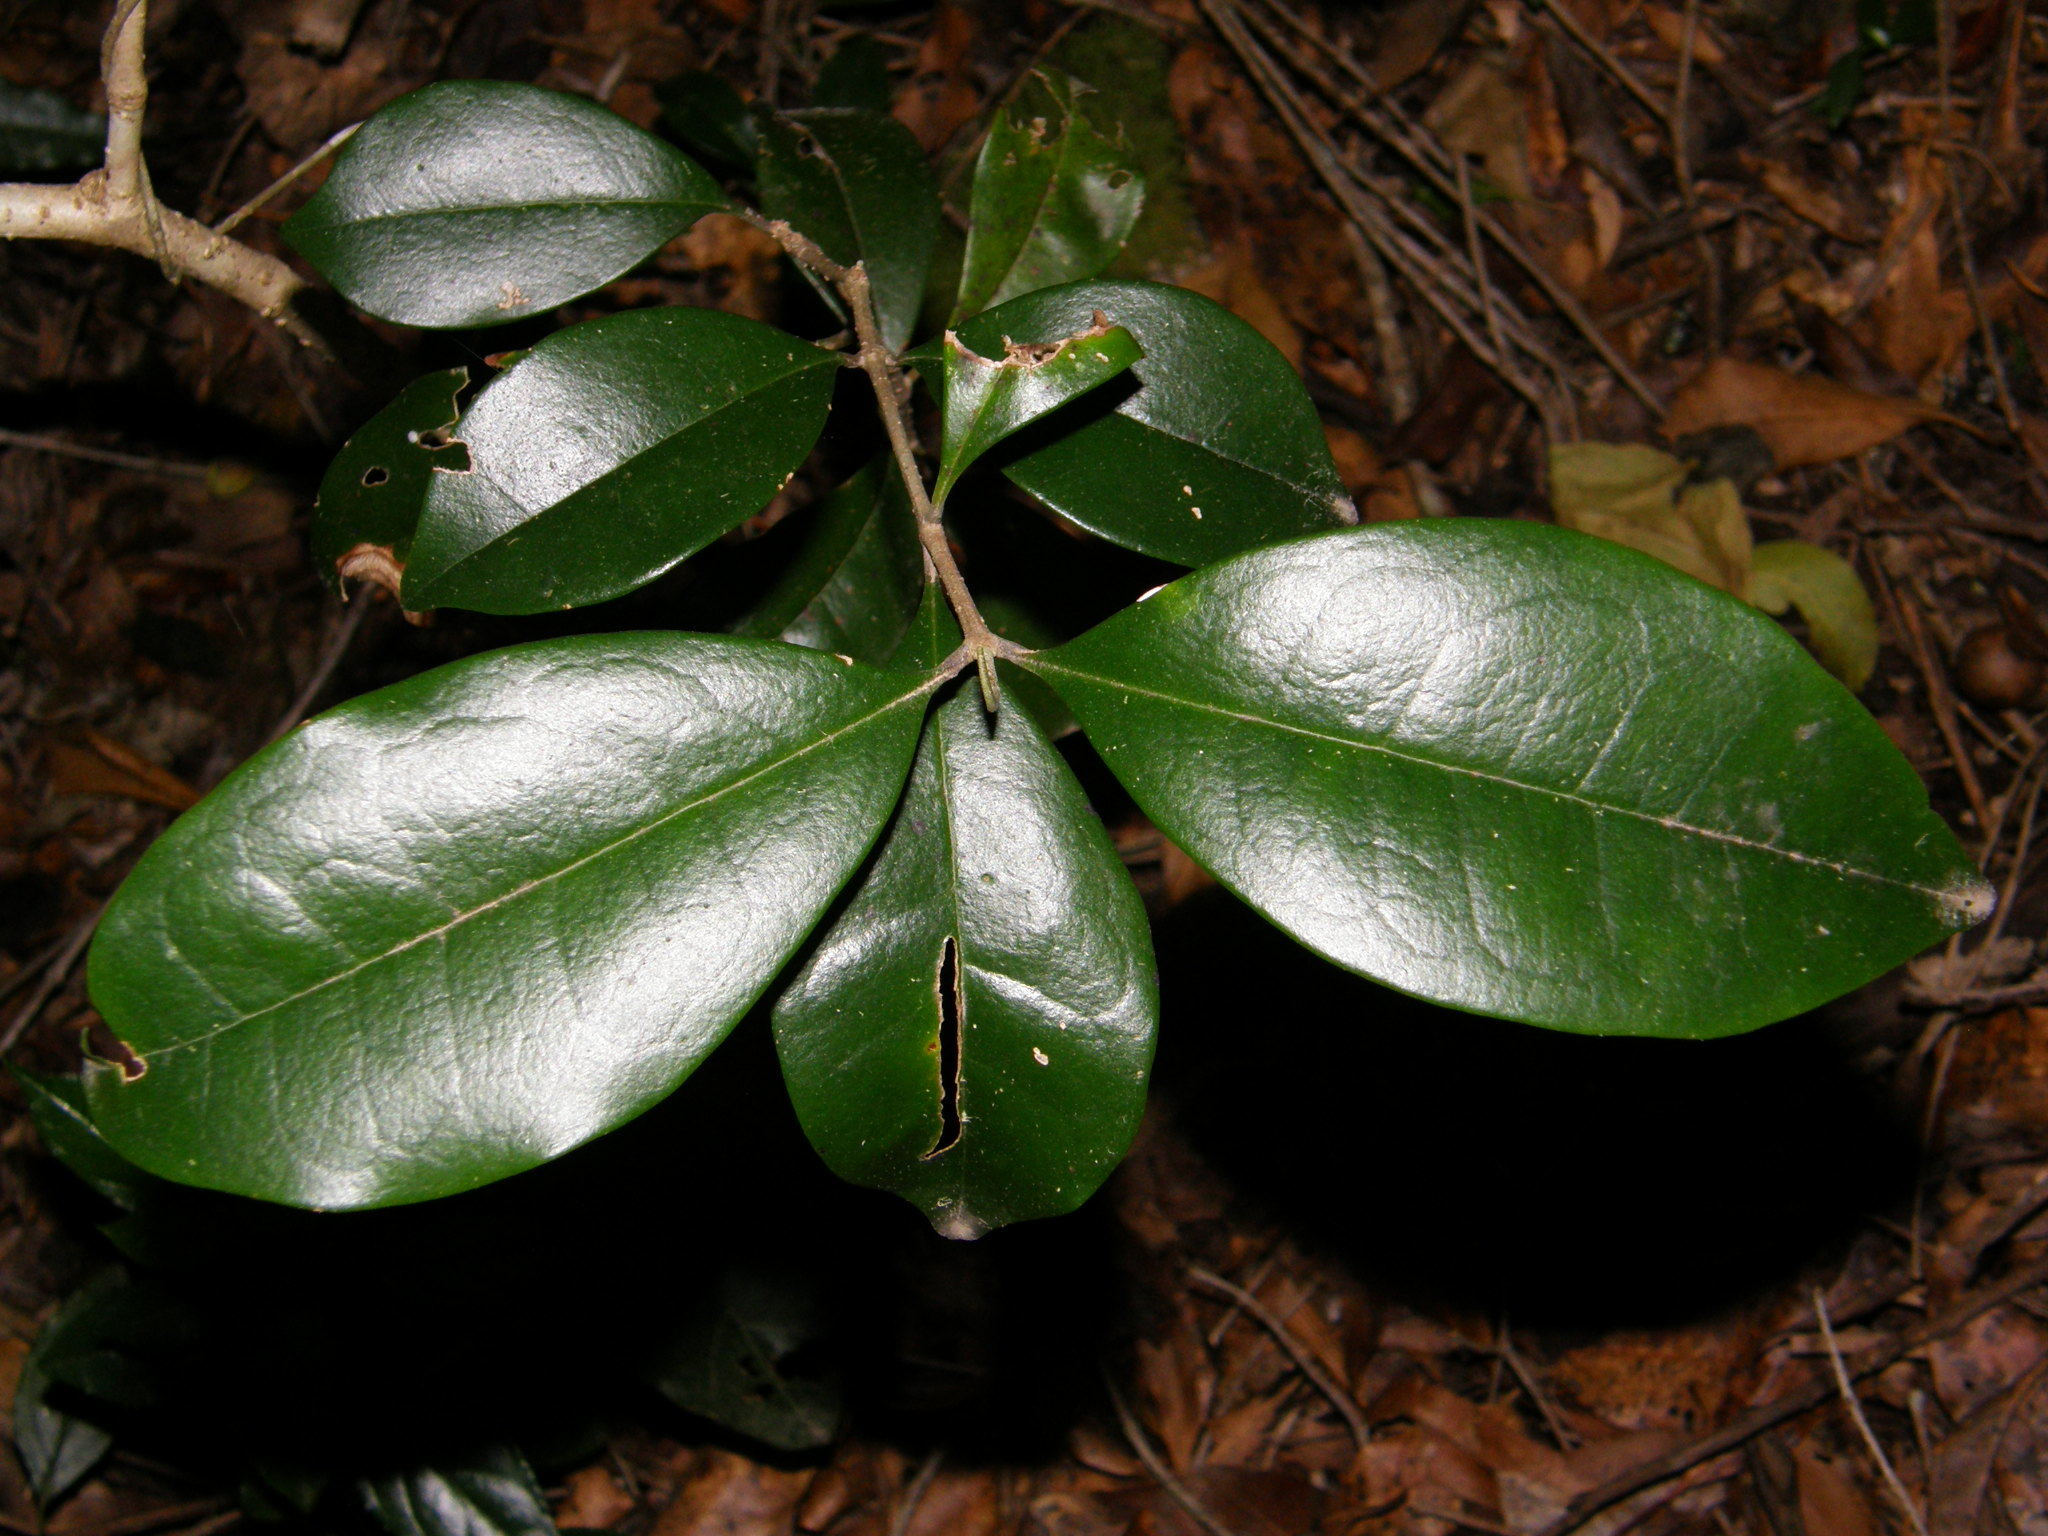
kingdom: Plantae
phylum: Tracheophyta
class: Magnoliopsida
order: Myrtales
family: Penaeaceae
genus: Olinia
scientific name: Olinia ventosa
